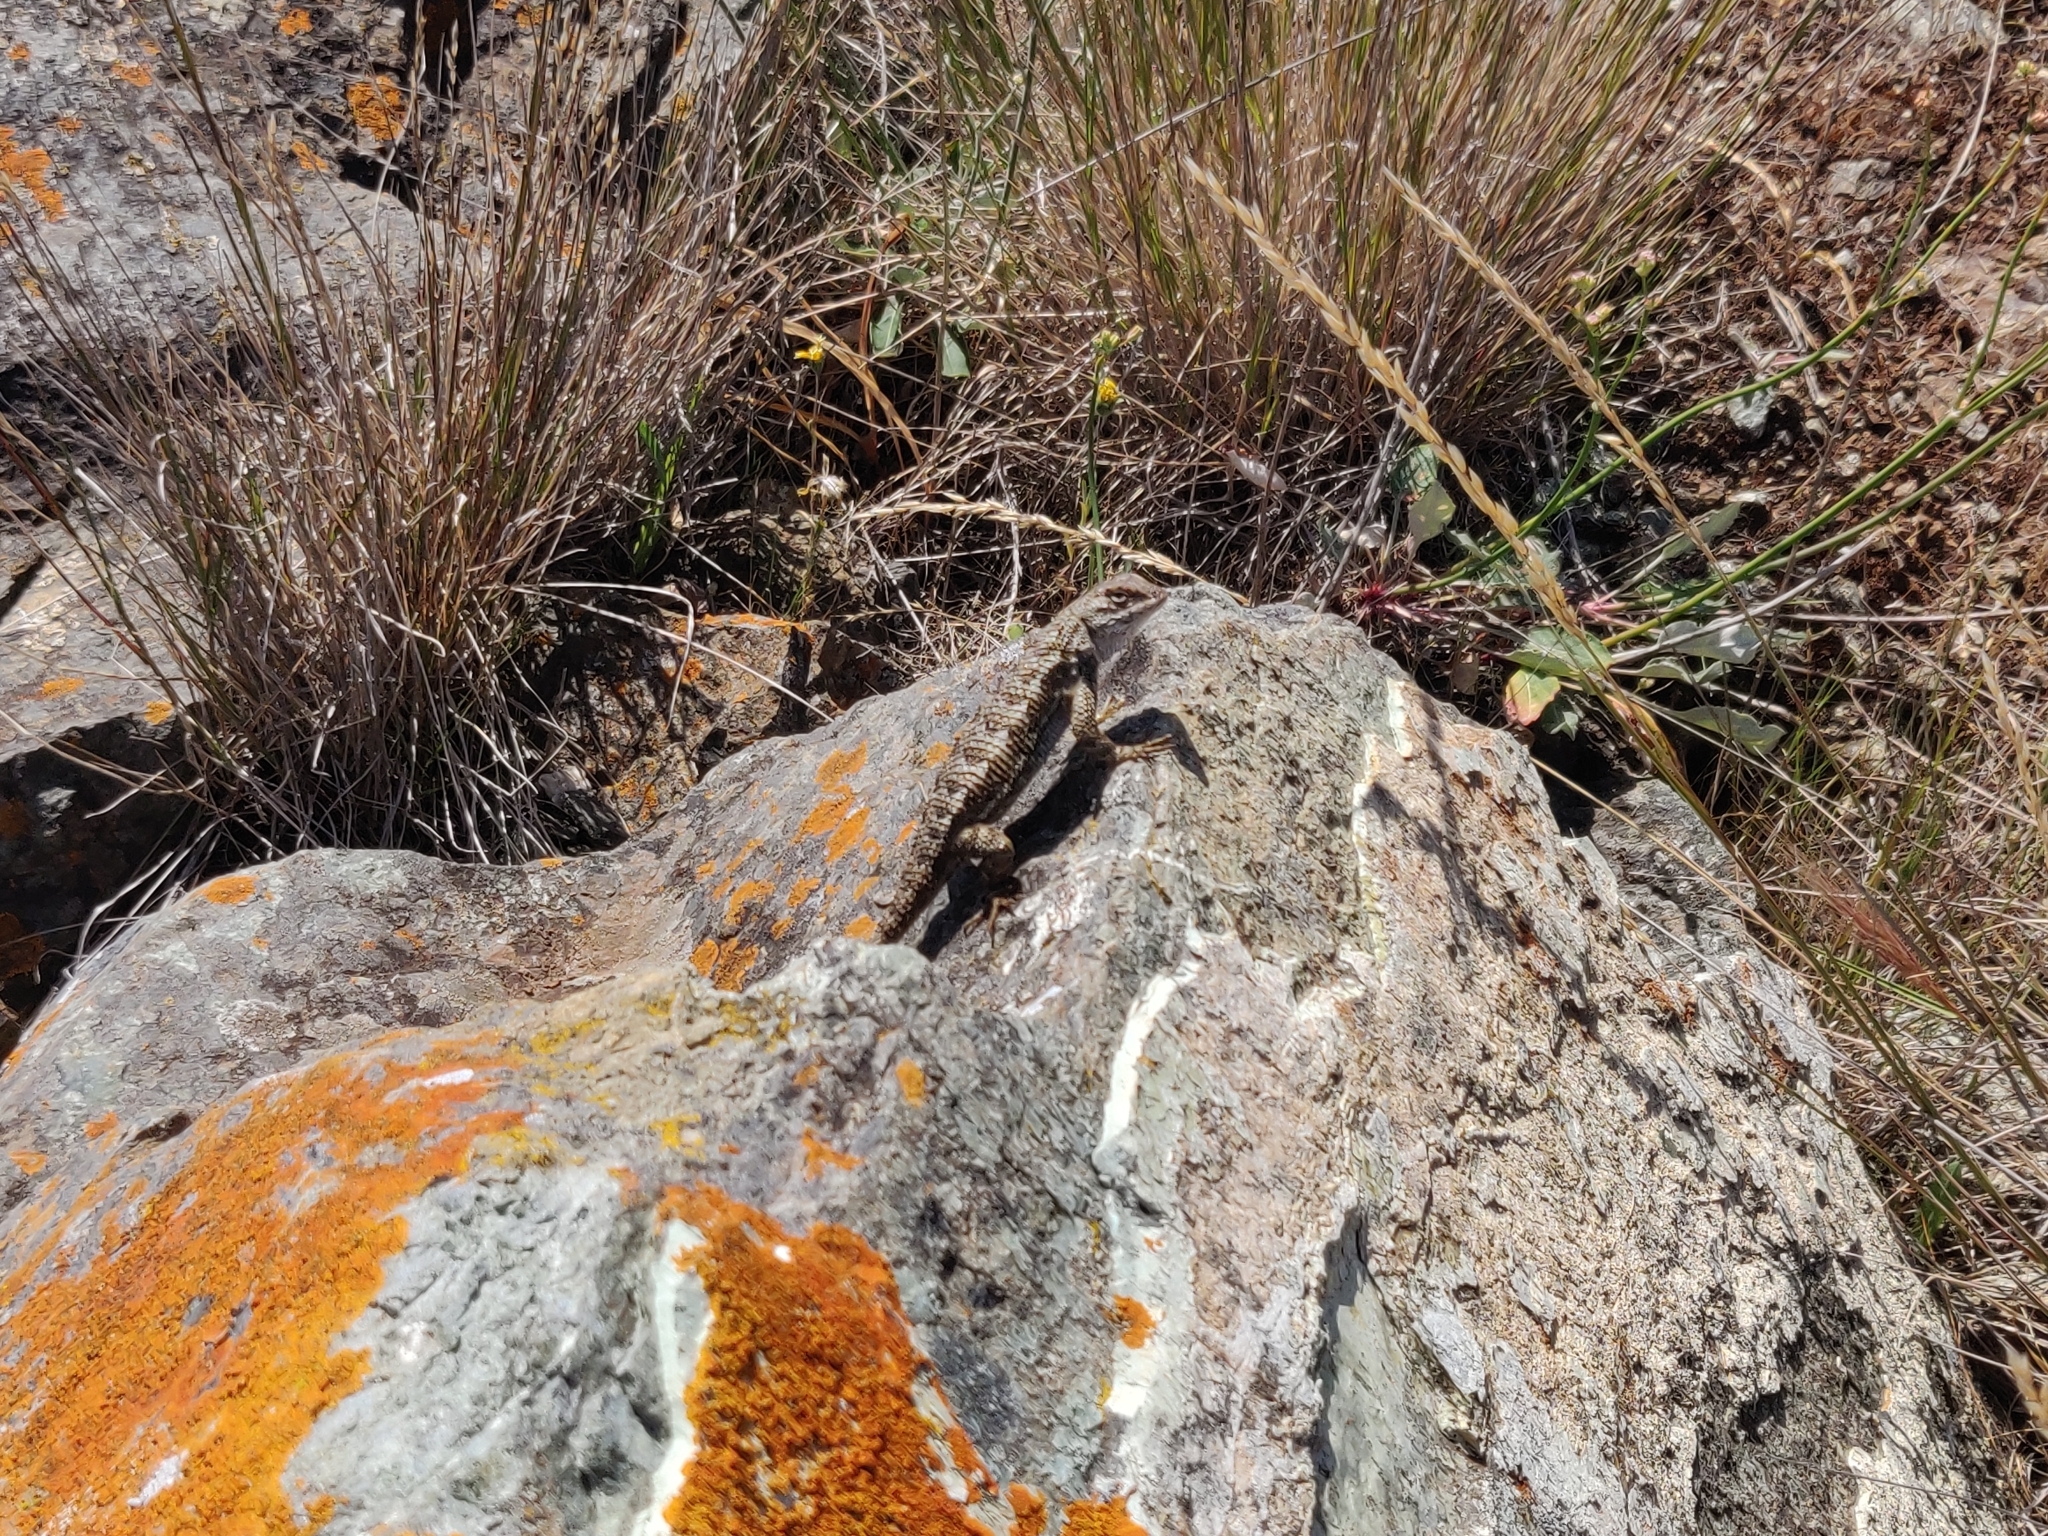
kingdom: Animalia
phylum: Chordata
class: Squamata
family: Phrynosomatidae
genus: Sceloporus
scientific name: Sceloporus occidentalis
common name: Western fence lizard
